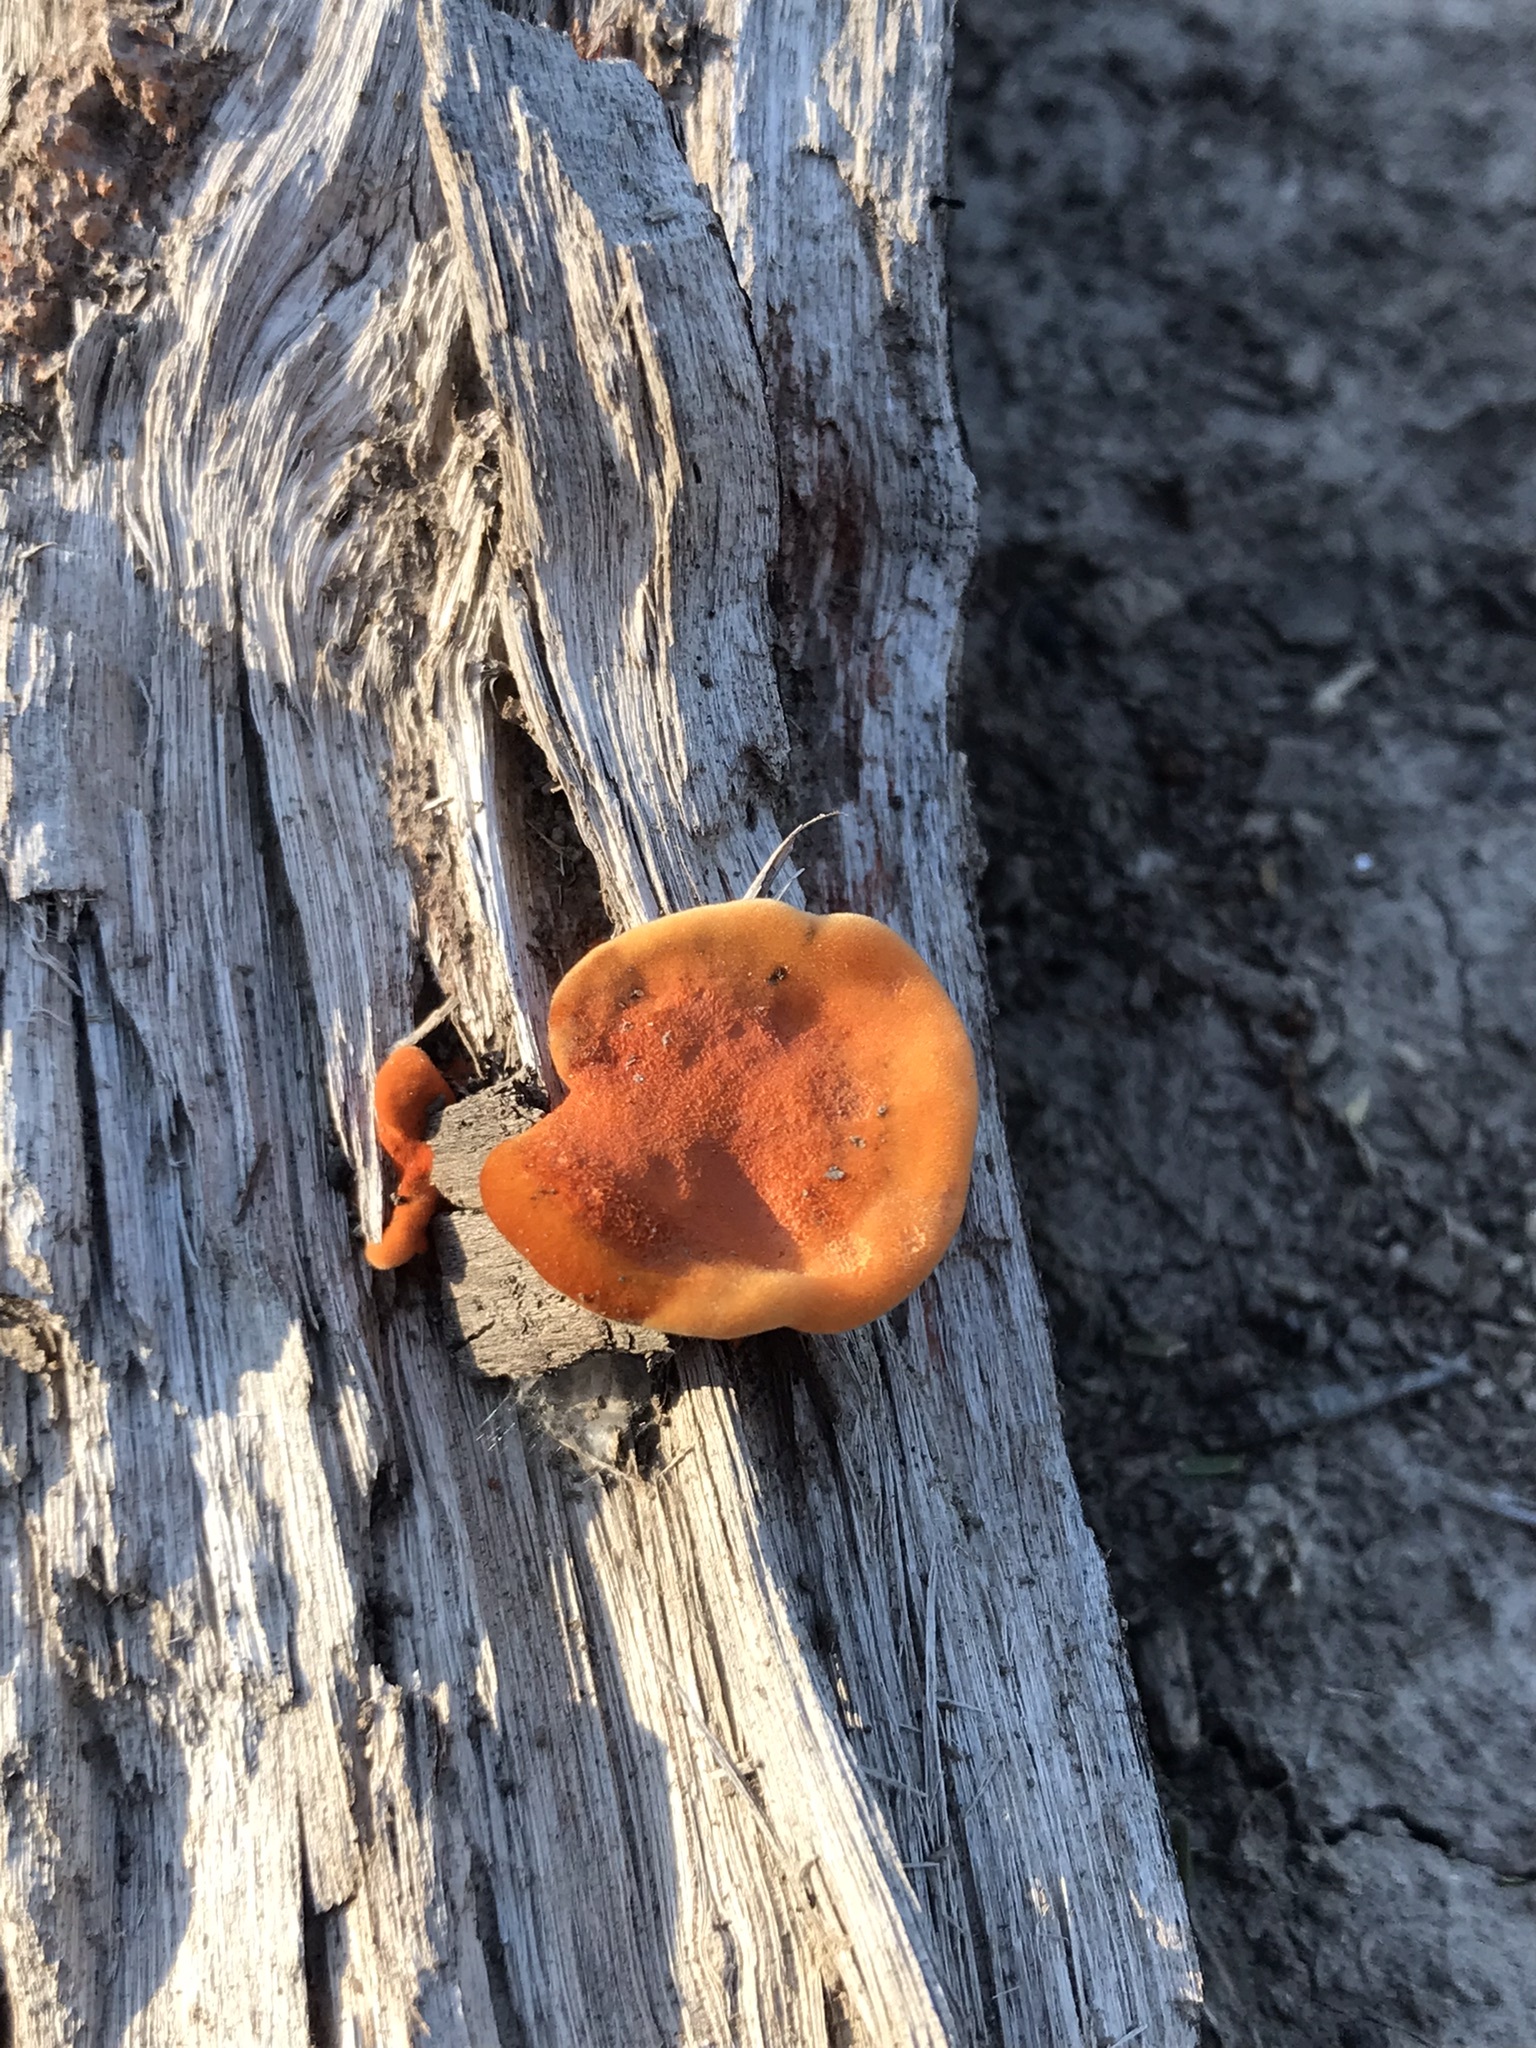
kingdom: Fungi
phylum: Basidiomycota
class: Agaricomycetes
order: Polyporales
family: Polyporaceae
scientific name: Polyporaceae
